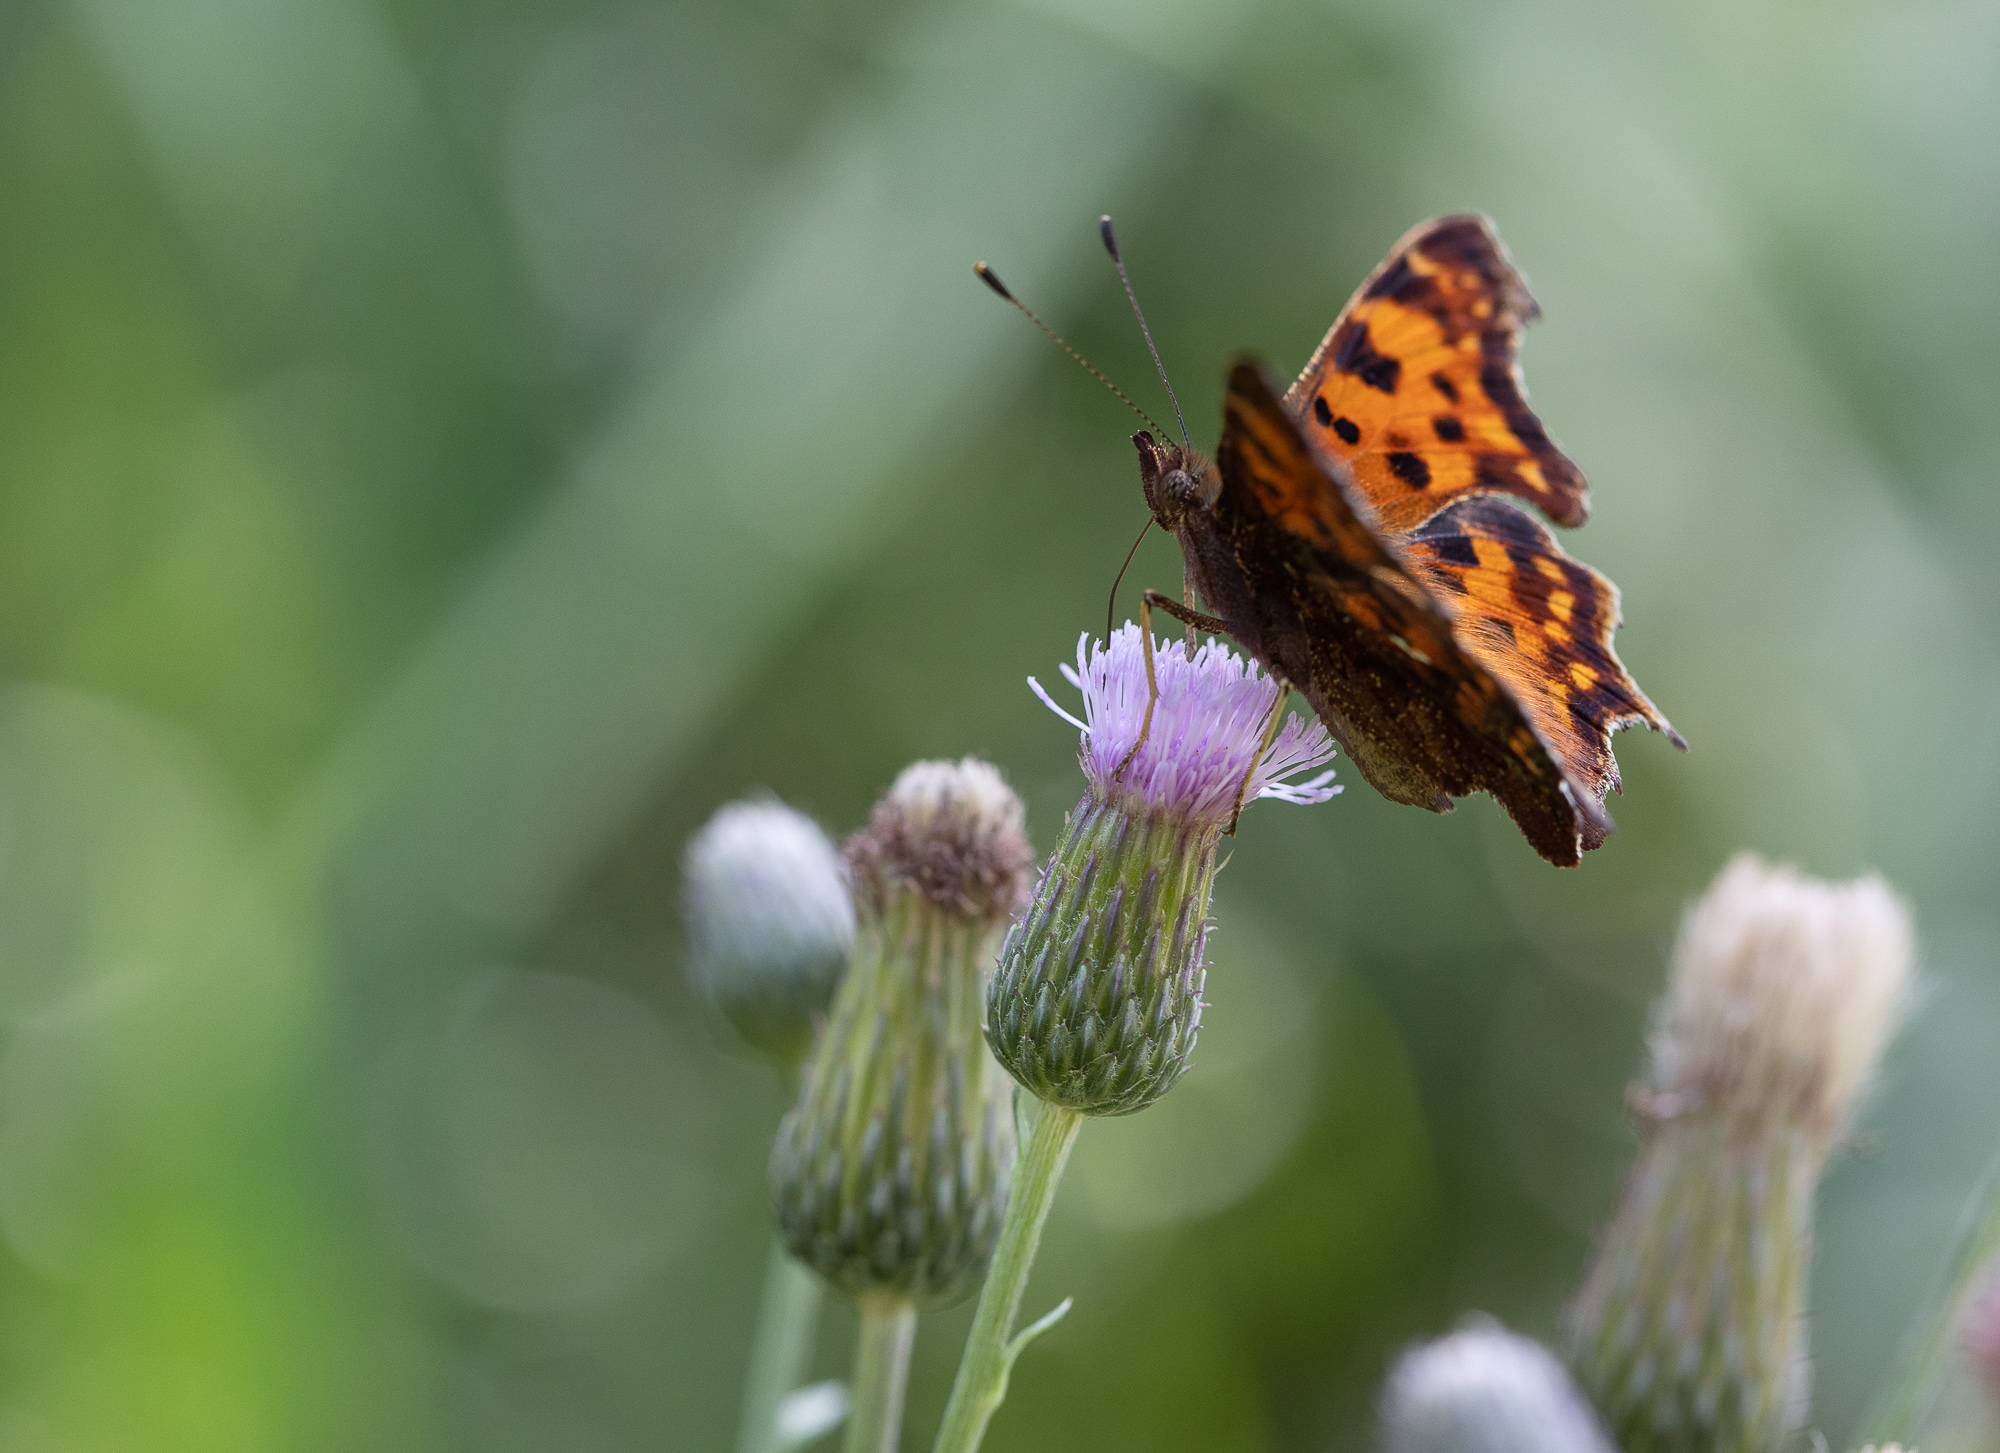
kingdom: Animalia
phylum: Arthropoda
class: Insecta
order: Lepidoptera
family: Nymphalidae
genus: Polygonia
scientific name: Polygonia c-album
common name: Comma
